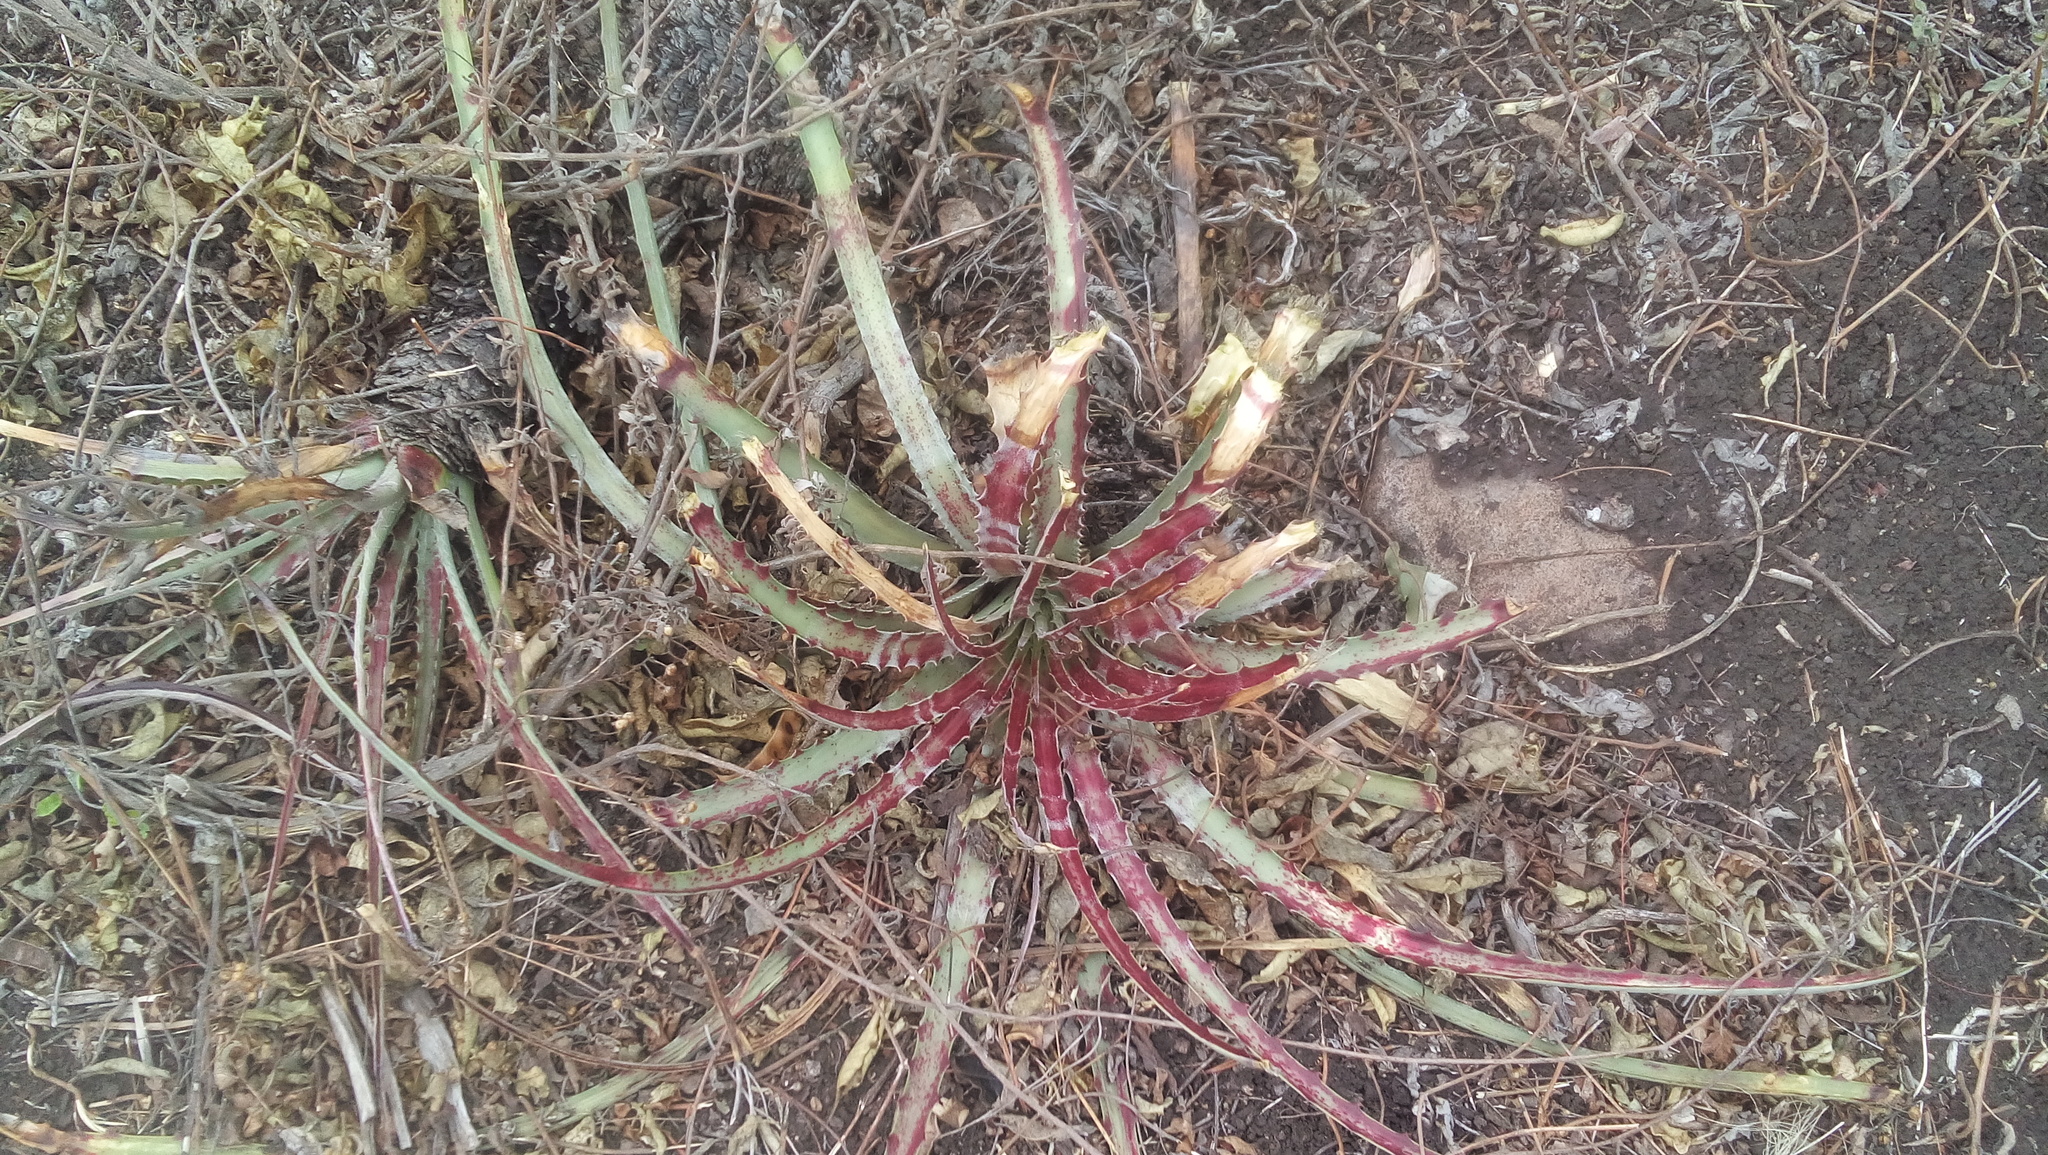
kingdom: Plantae
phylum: Tracheophyta
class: Liliopsida
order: Poales
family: Bromeliaceae
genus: Hechtia
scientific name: Hechtia glomerata
